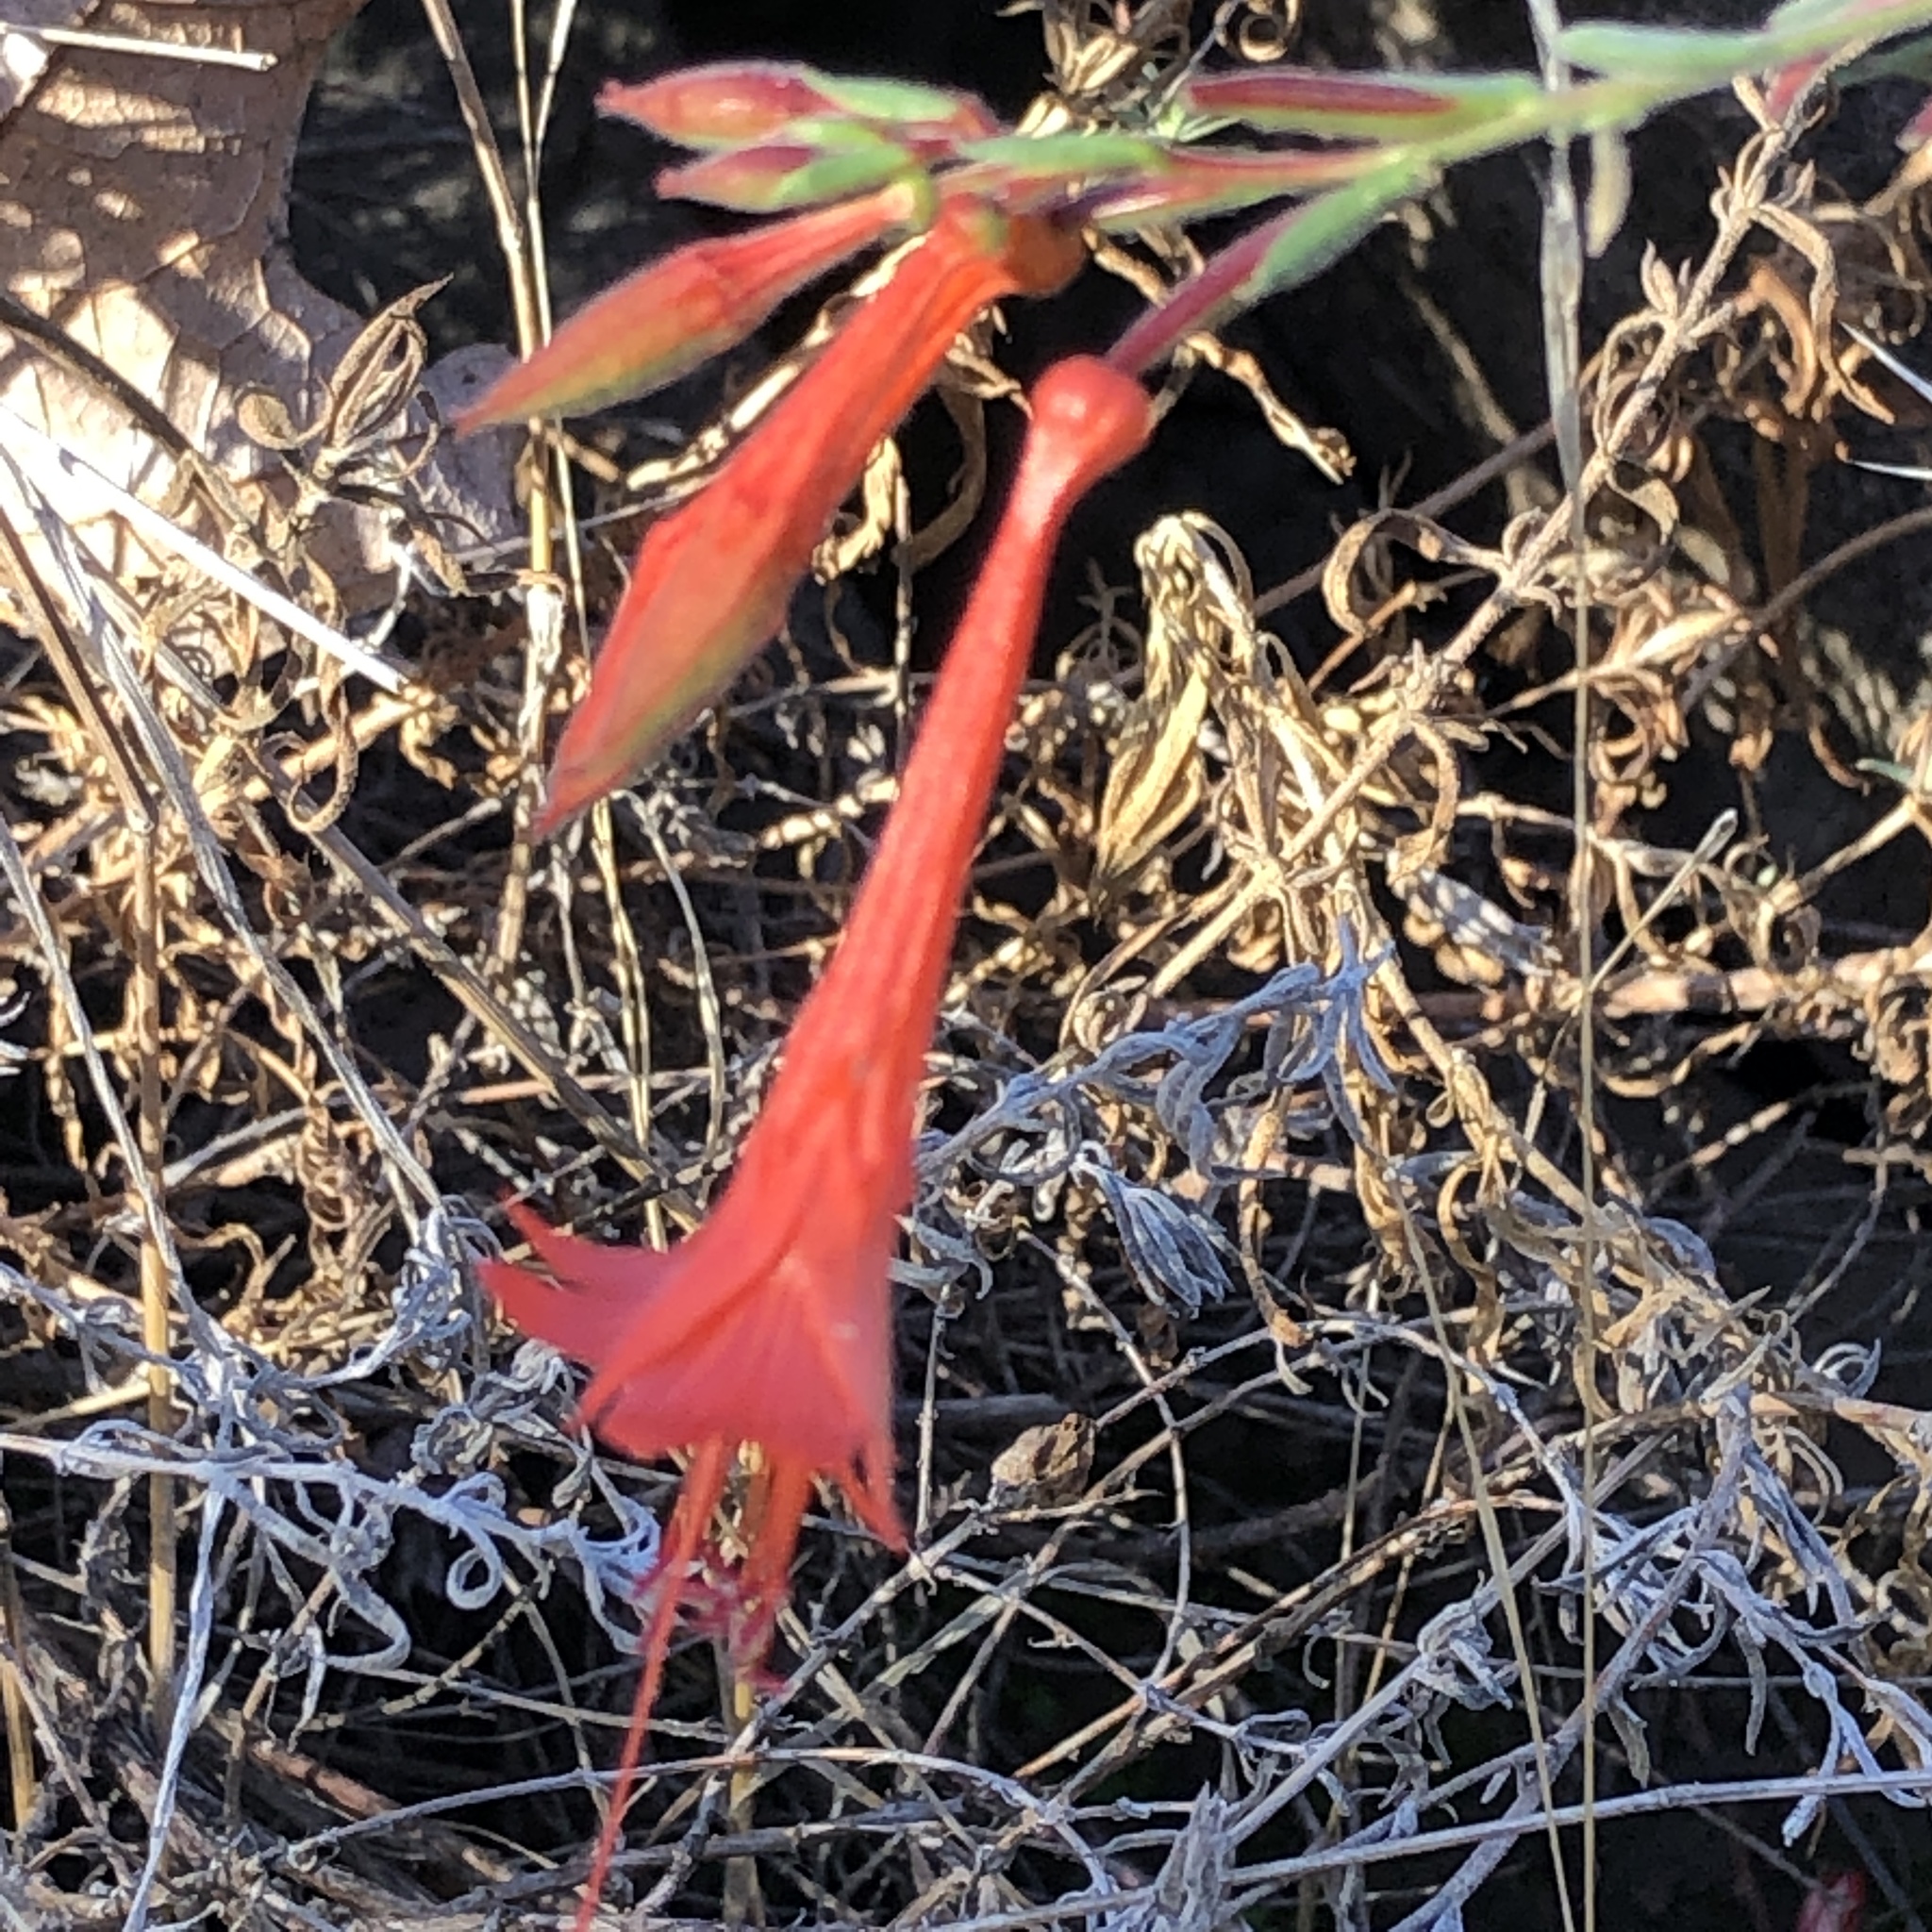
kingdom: Plantae
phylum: Tracheophyta
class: Magnoliopsida
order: Myrtales
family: Onagraceae
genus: Epilobium
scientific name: Epilobium canum
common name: California-fuchsia
